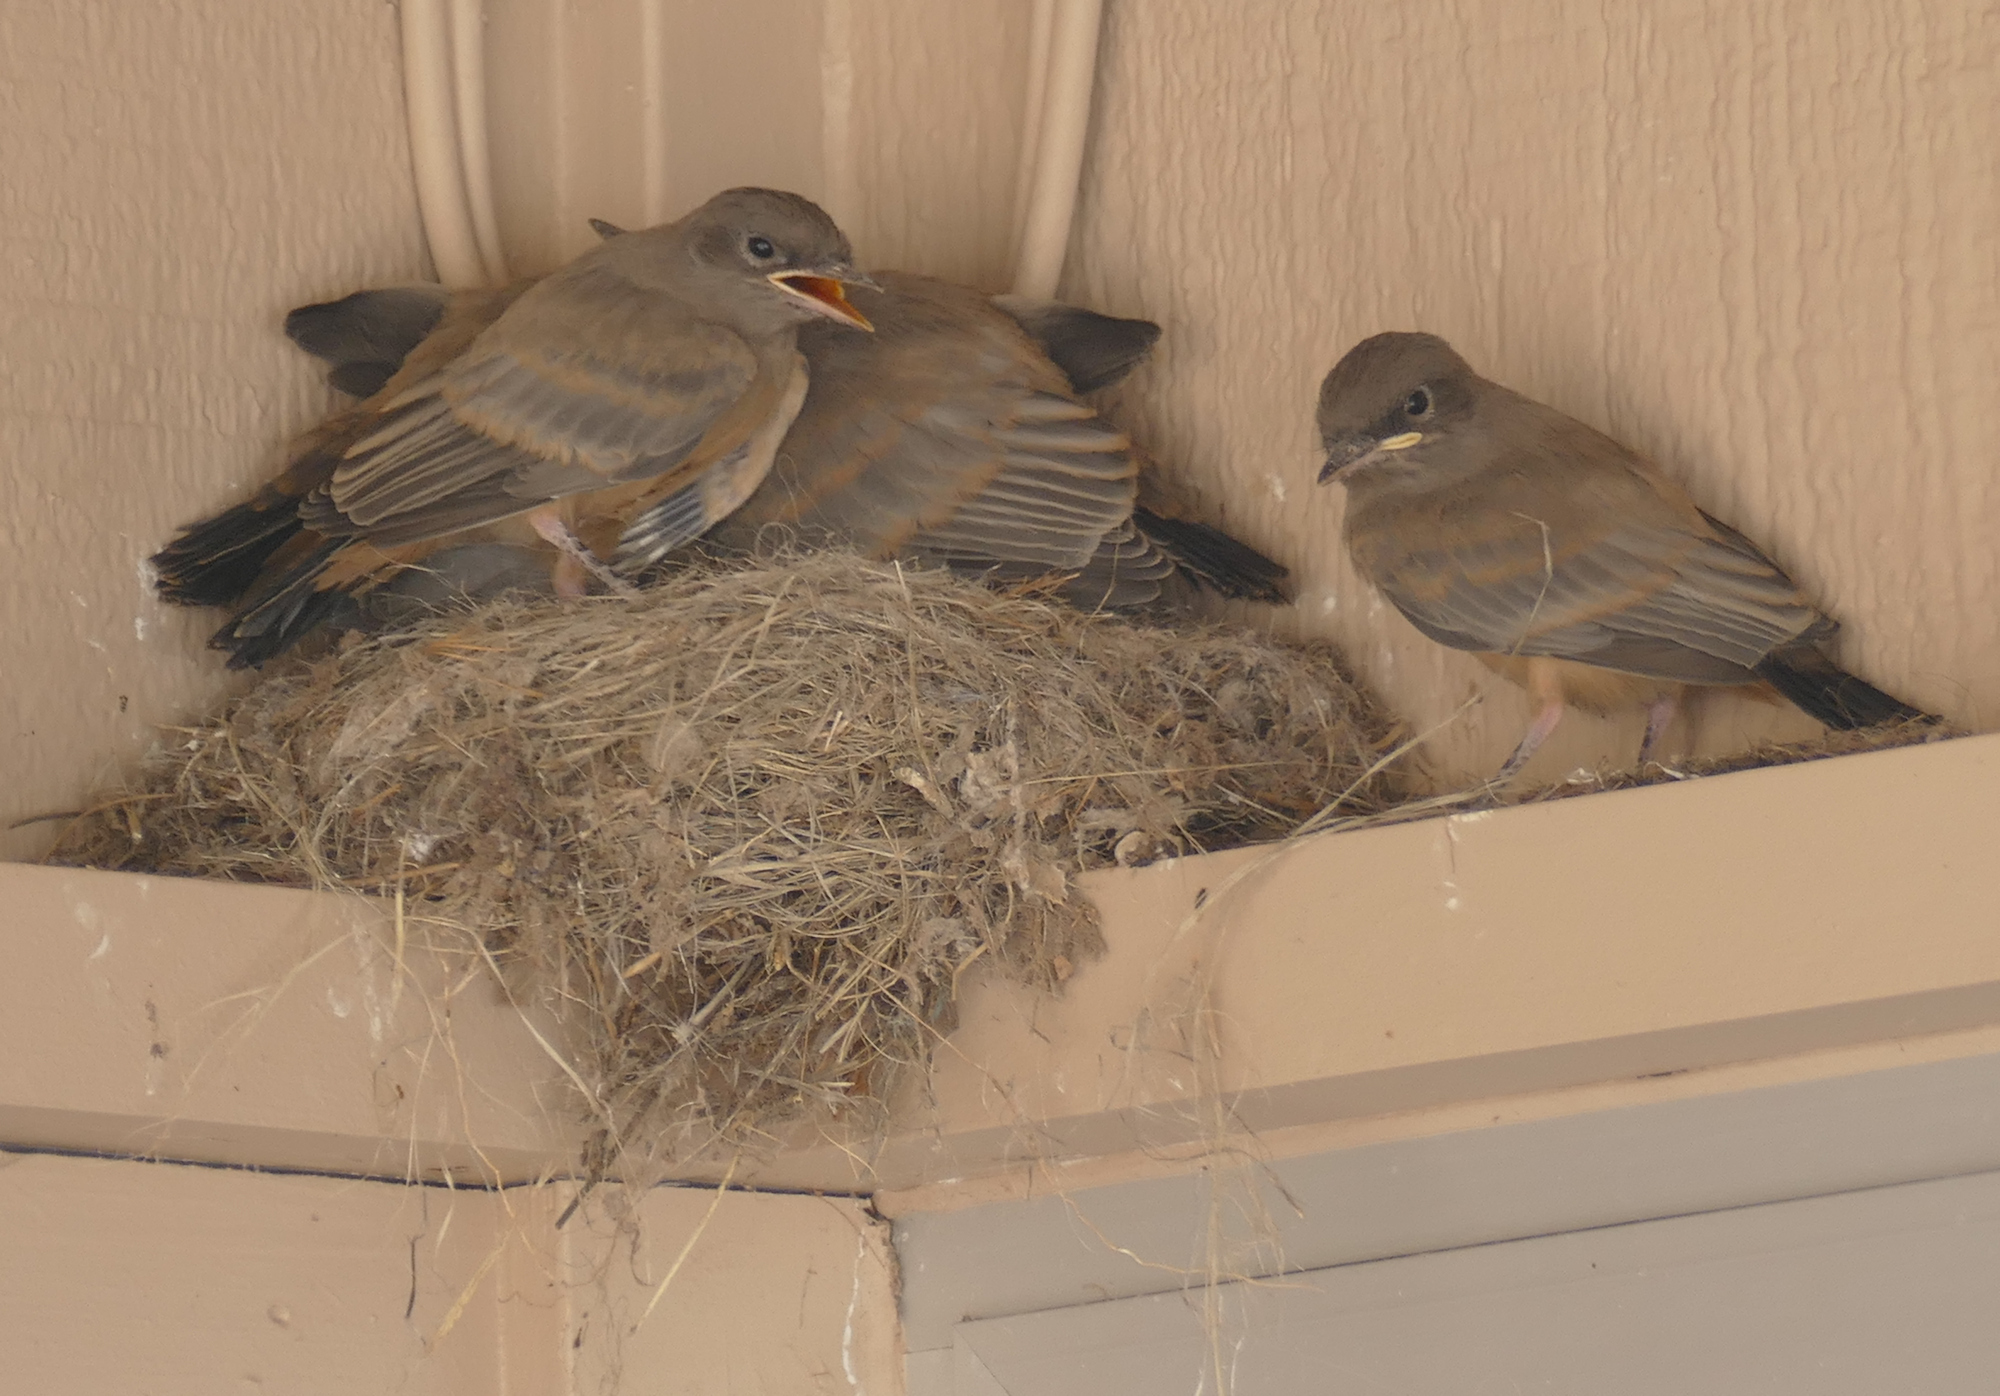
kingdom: Animalia
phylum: Chordata
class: Aves
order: Passeriformes
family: Tyrannidae
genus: Sayornis
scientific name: Sayornis saya
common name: Say's phoebe
